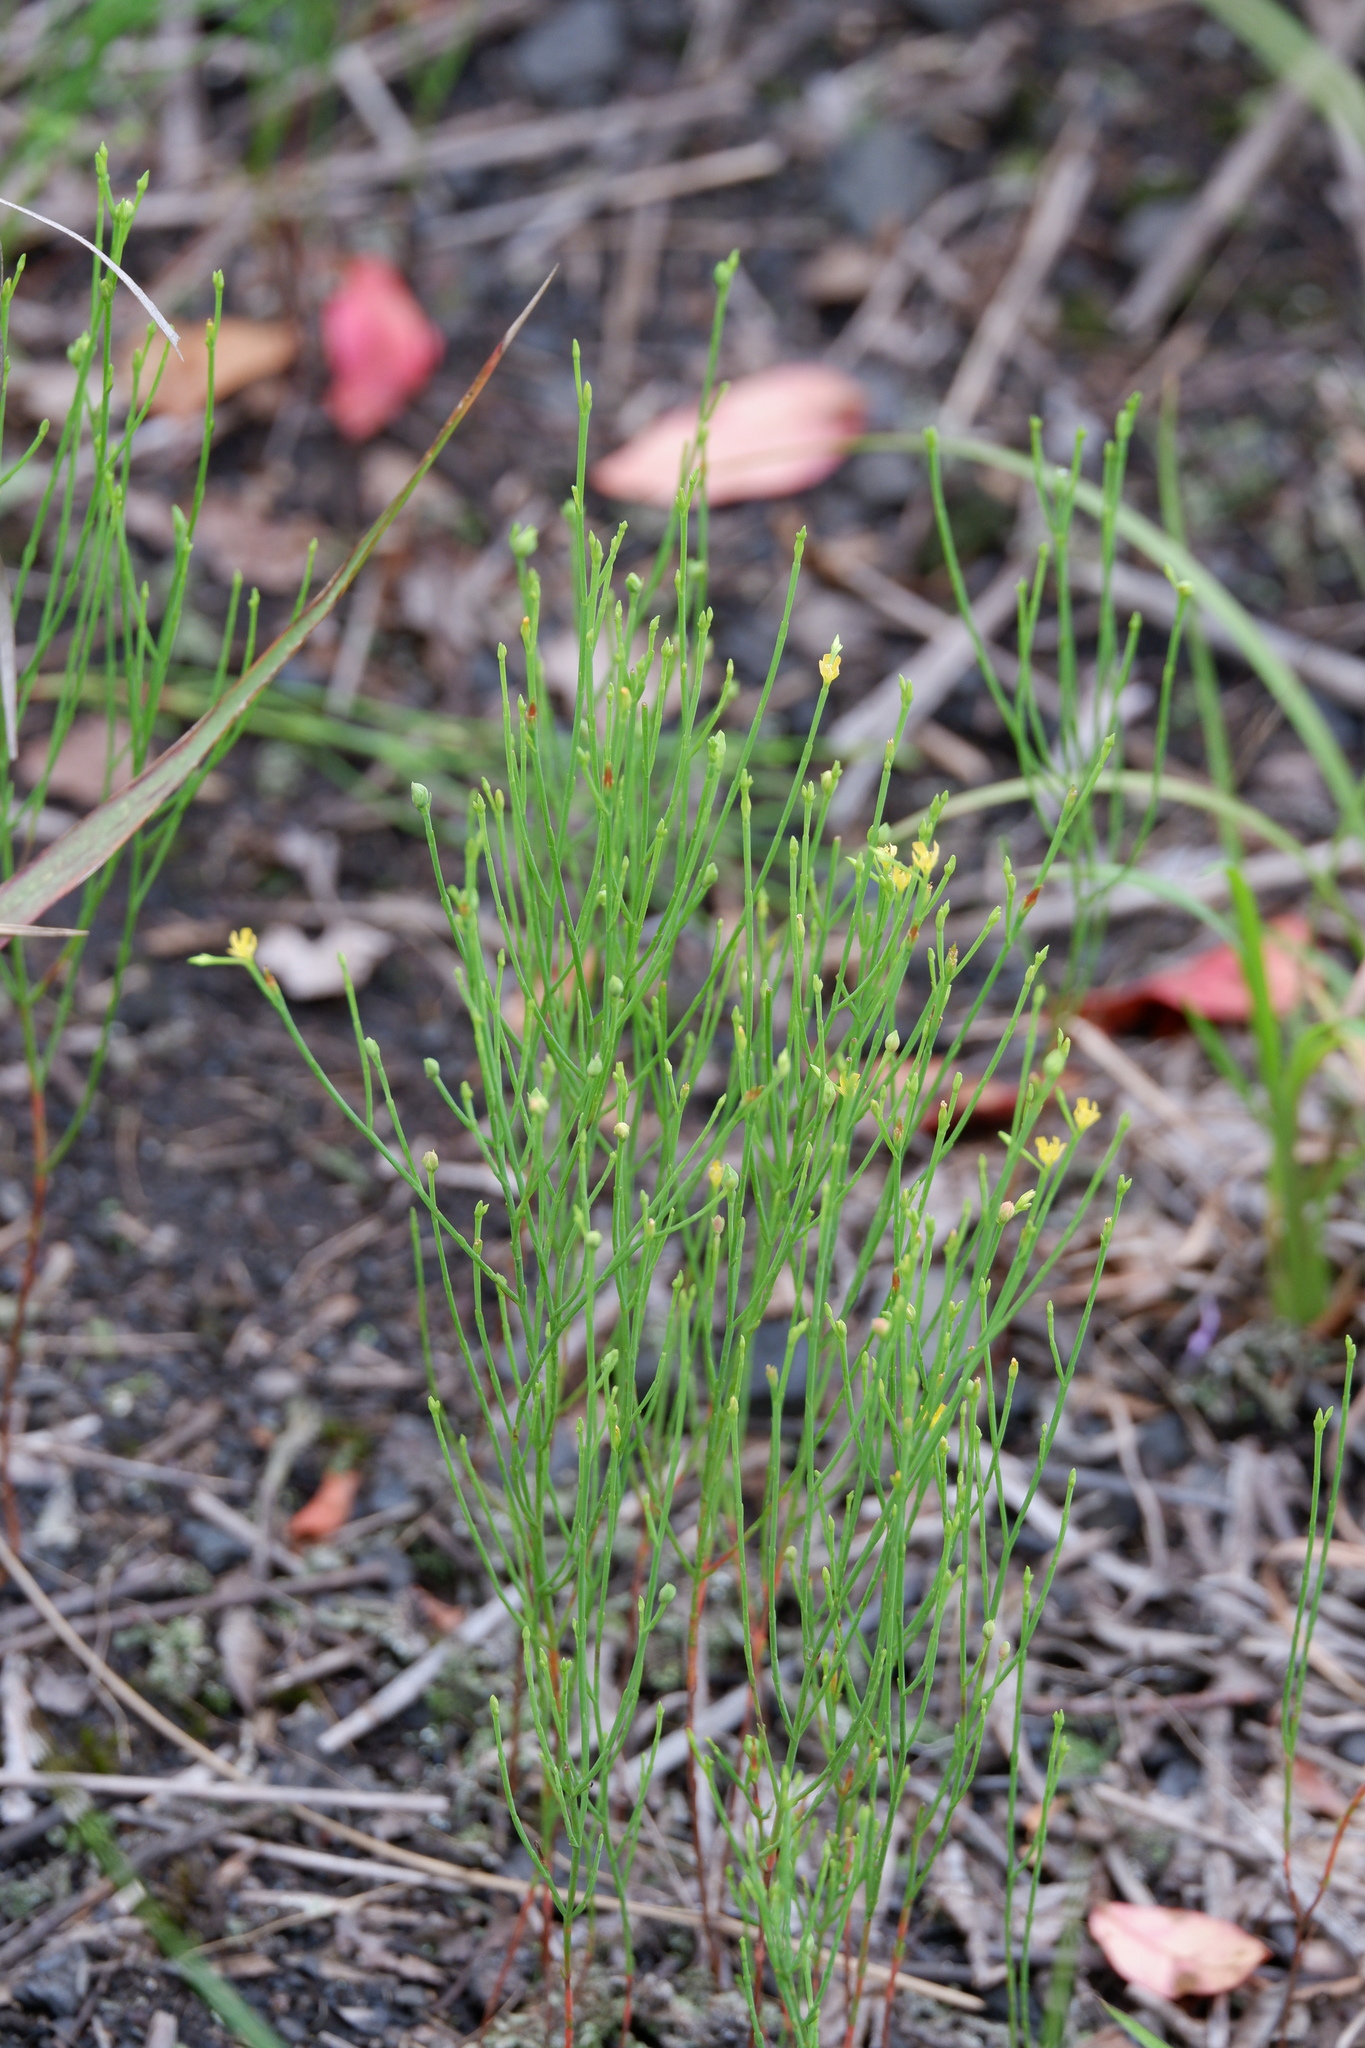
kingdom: Plantae
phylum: Tracheophyta
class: Magnoliopsida
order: Malpighiales
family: Hypericaceae
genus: Hypericum
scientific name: Hypericum gentianoides
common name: Gentian-leaved st. john's-wort
